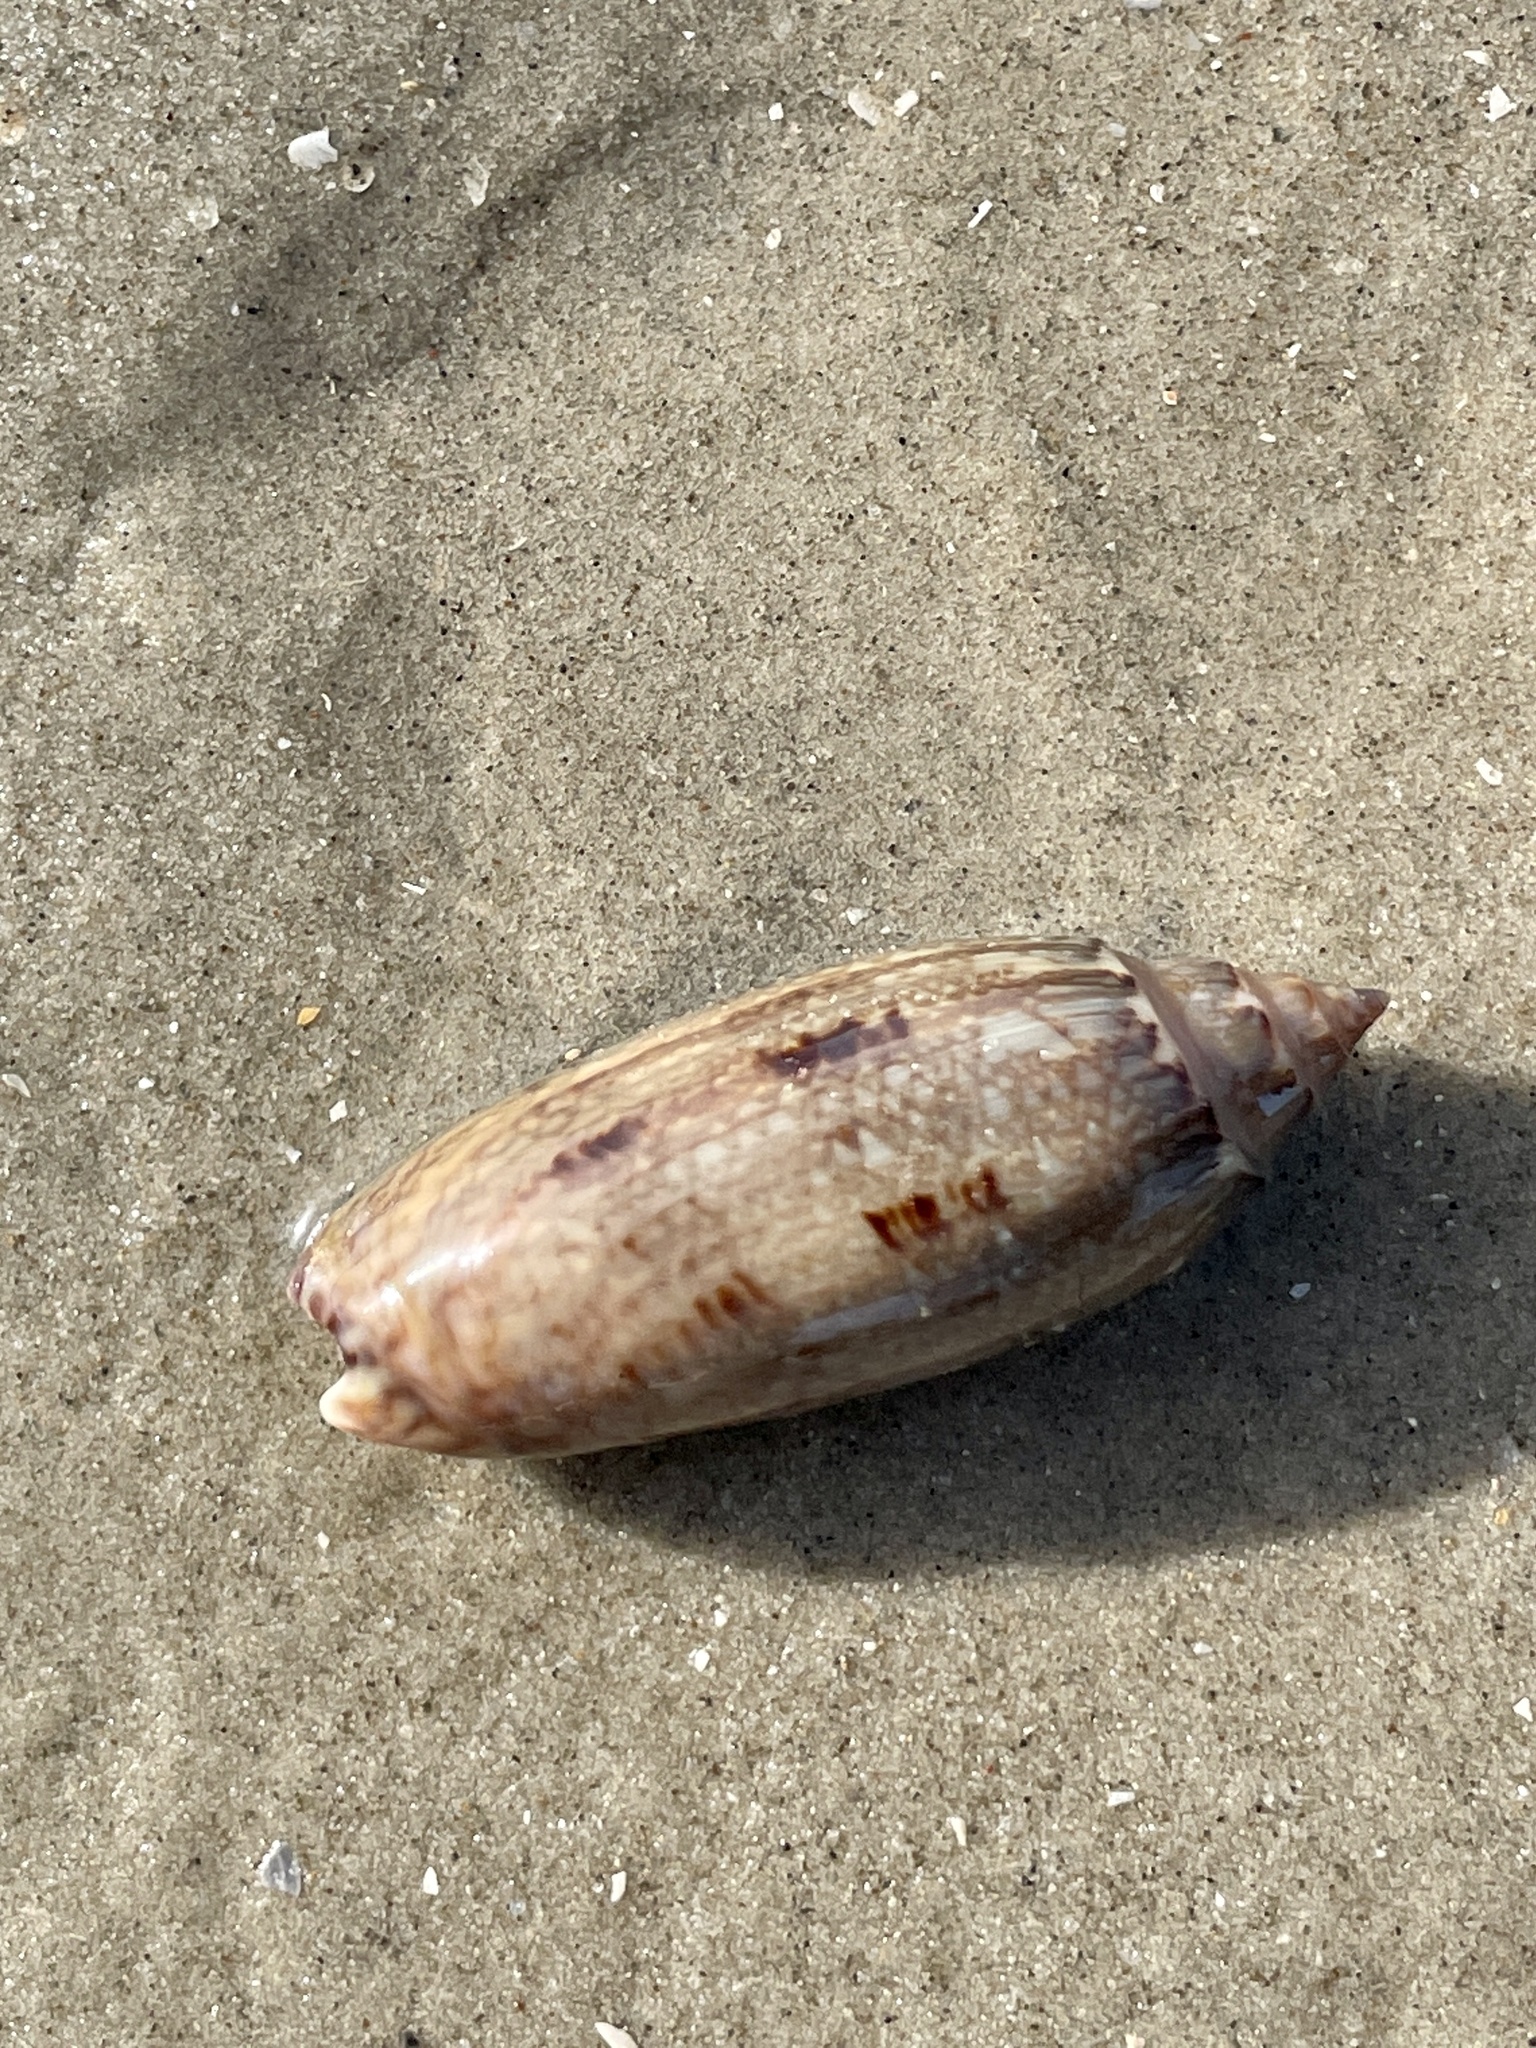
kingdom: Animalia
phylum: Mollusca
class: Gastropoda
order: Neogastropoda
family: Olividae
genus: Oliva
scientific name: Oliva sayana
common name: Lettered olive
